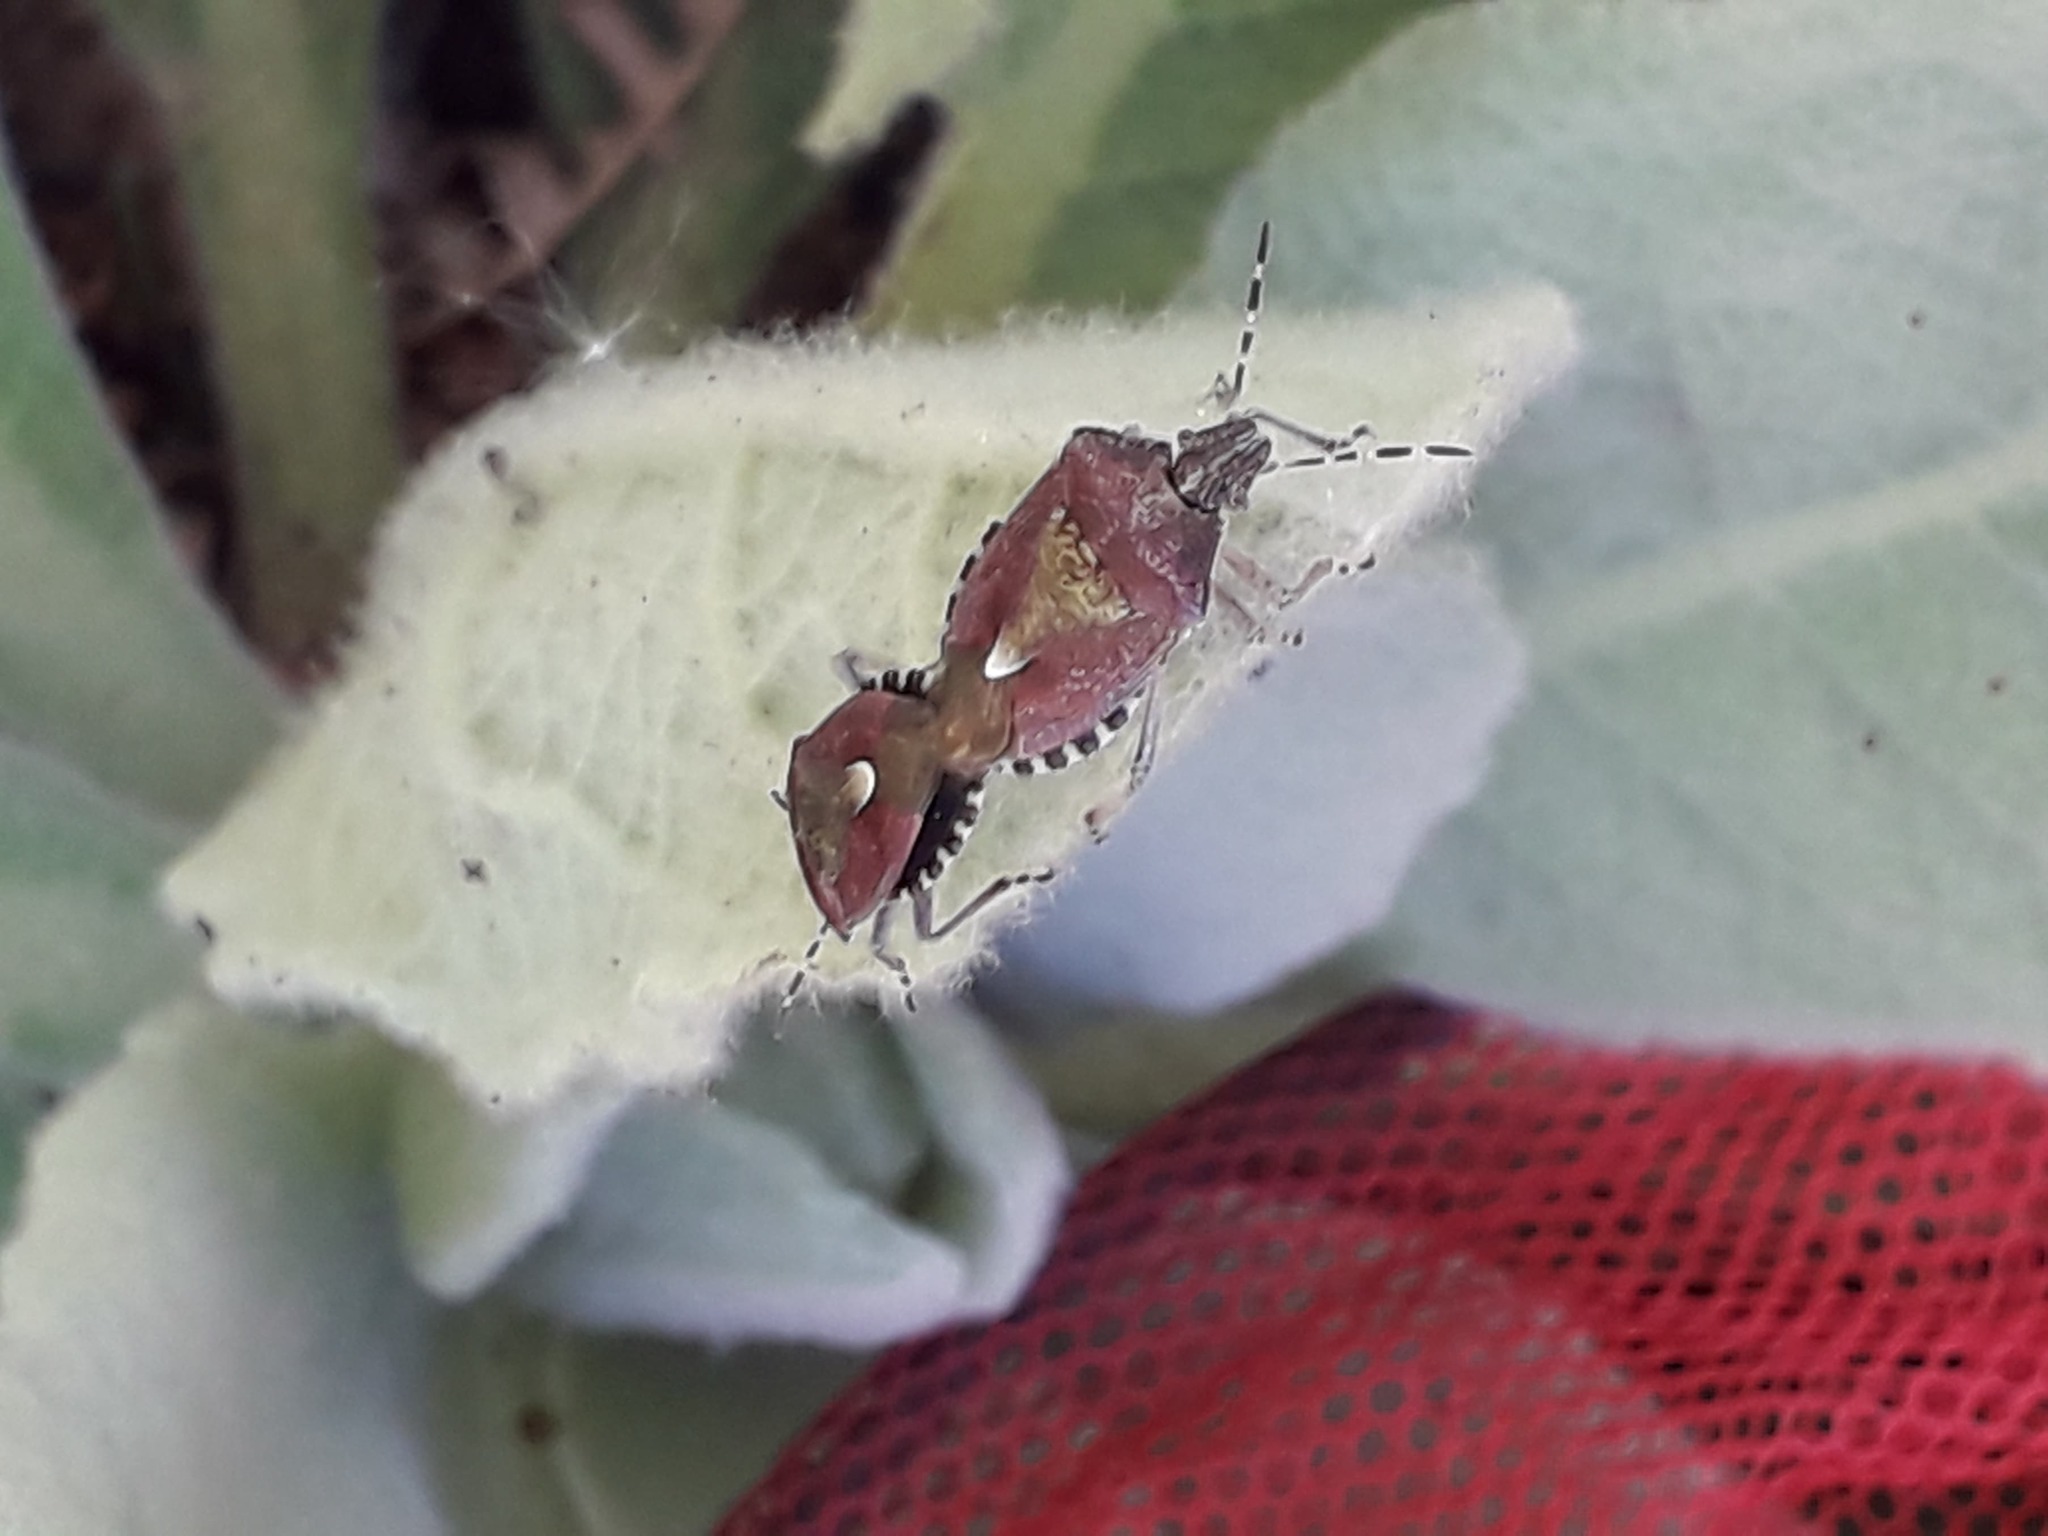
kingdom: Animalia
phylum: Arthropoda
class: Insecta
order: Hemiptera
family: Pentatomidae
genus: Dolycoris
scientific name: Dolycoris baccarum
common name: Sloe bug
